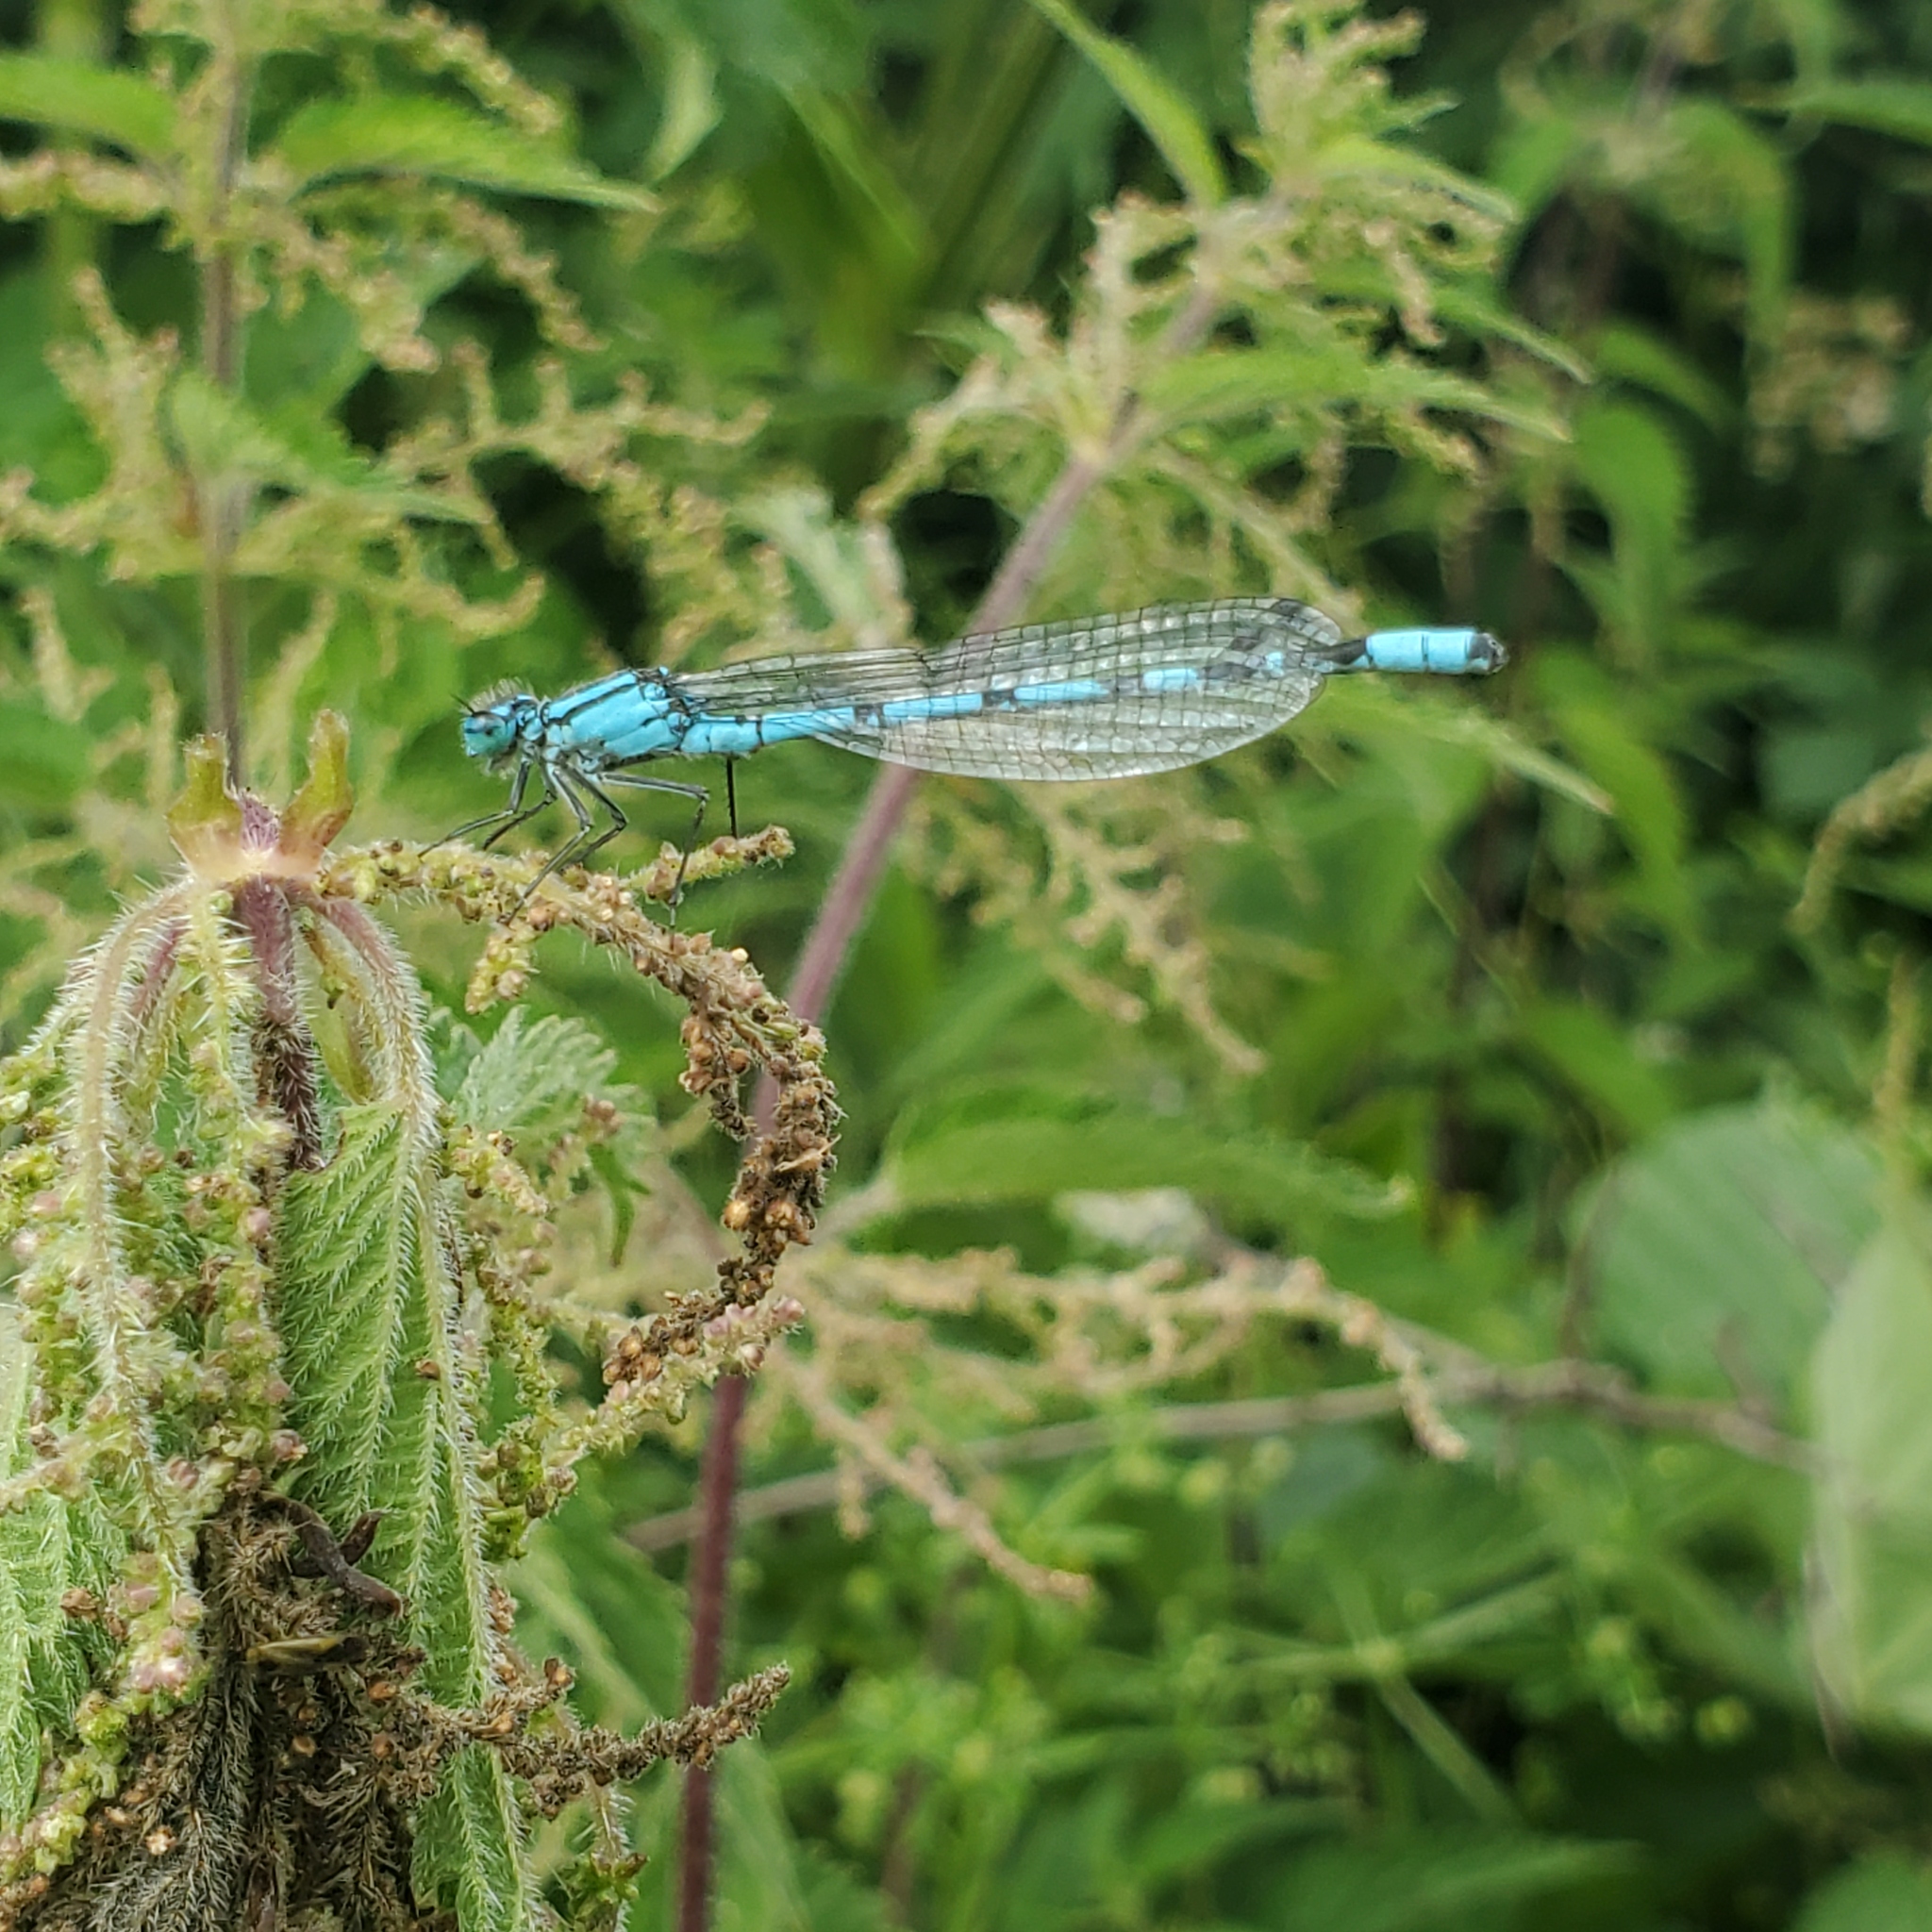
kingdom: Animalia
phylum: Arthropoda
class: Insecta
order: Odonata
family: Coenagrionidae
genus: Enallagma
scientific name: Enallagma cyathigerum
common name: Common blue damselfly
